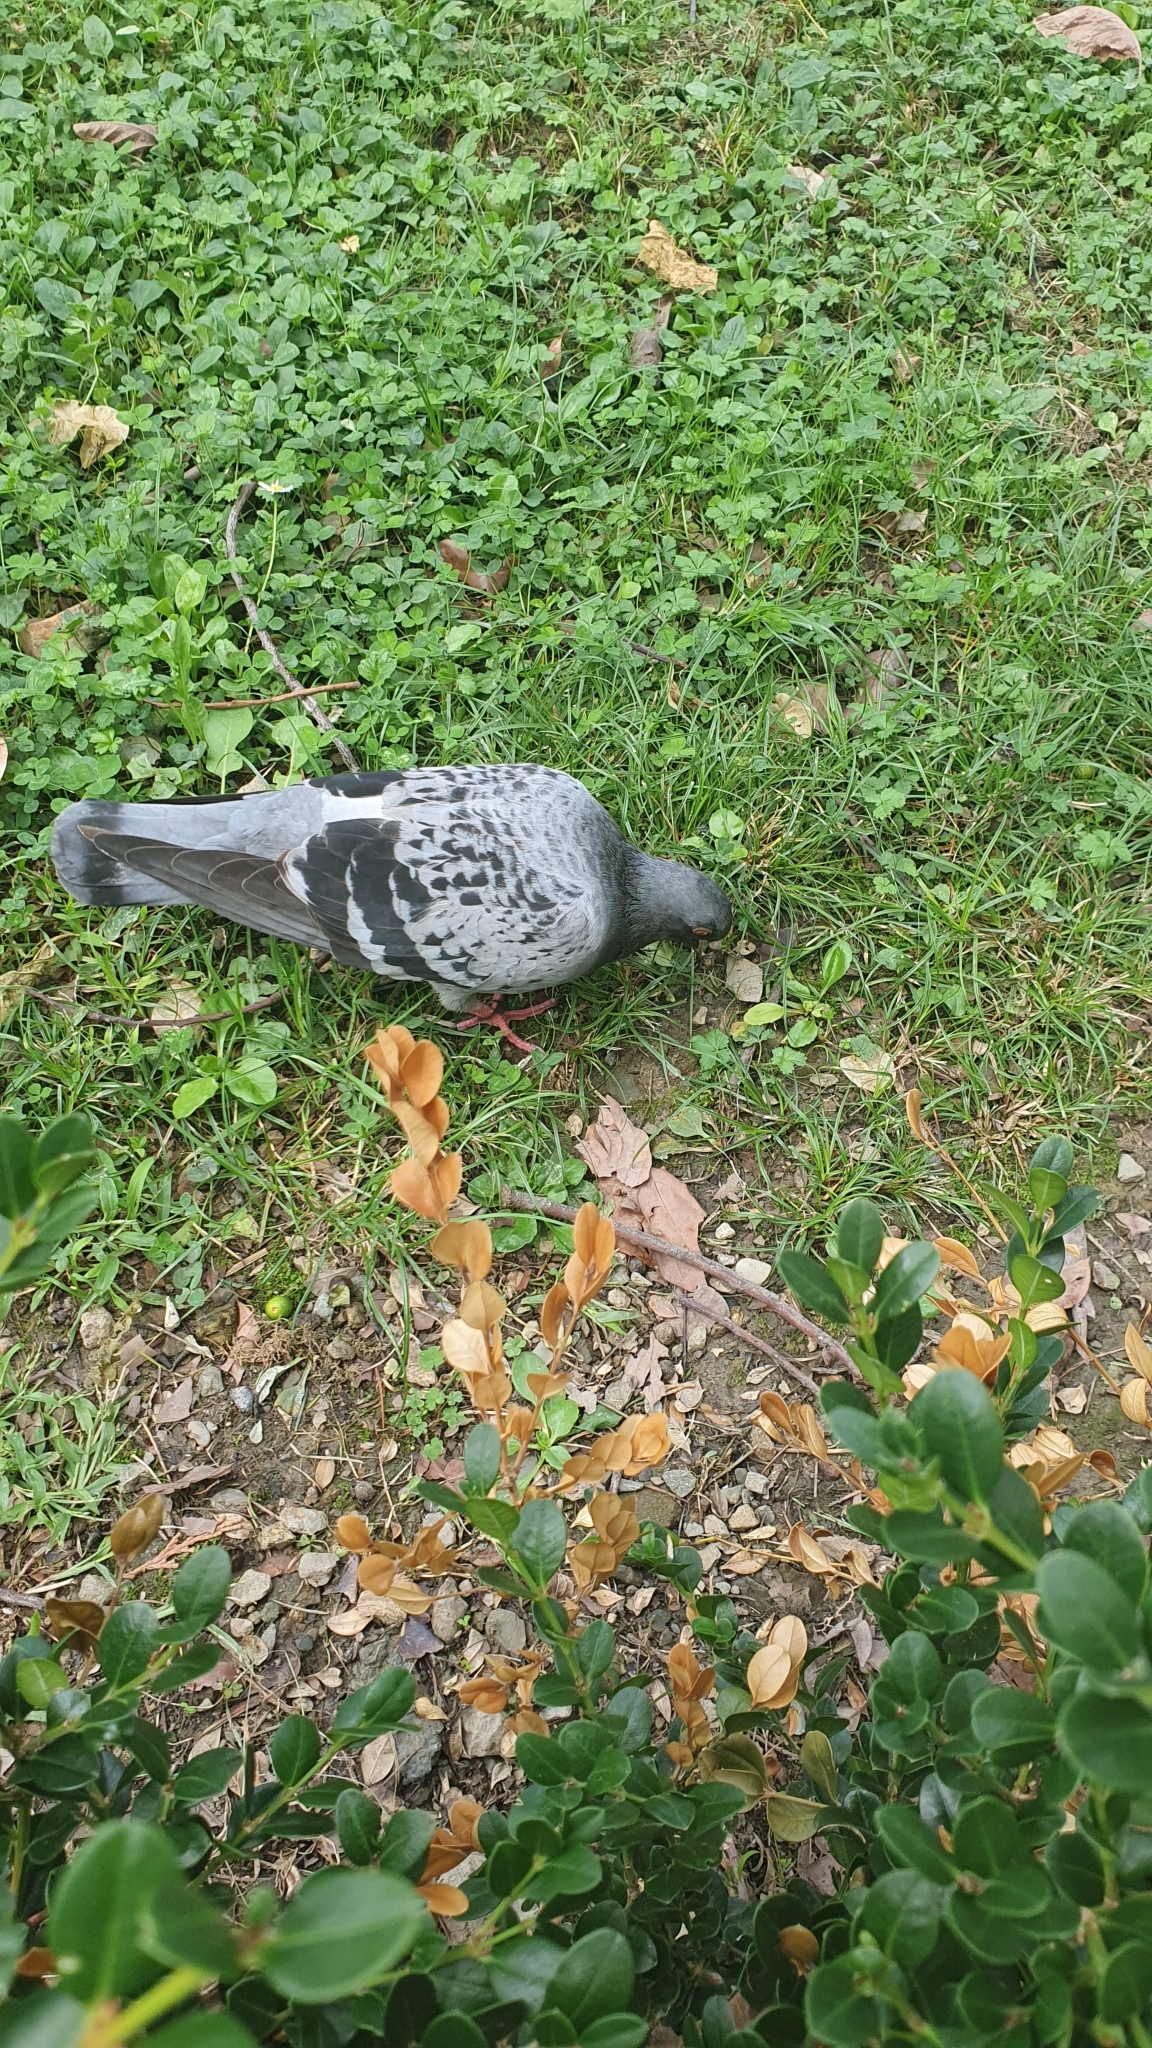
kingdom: Animalia
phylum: Chordata
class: Aves
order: Columbiformes
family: Columbidae
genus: Columba
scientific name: Columba livia
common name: Rock pigeon
